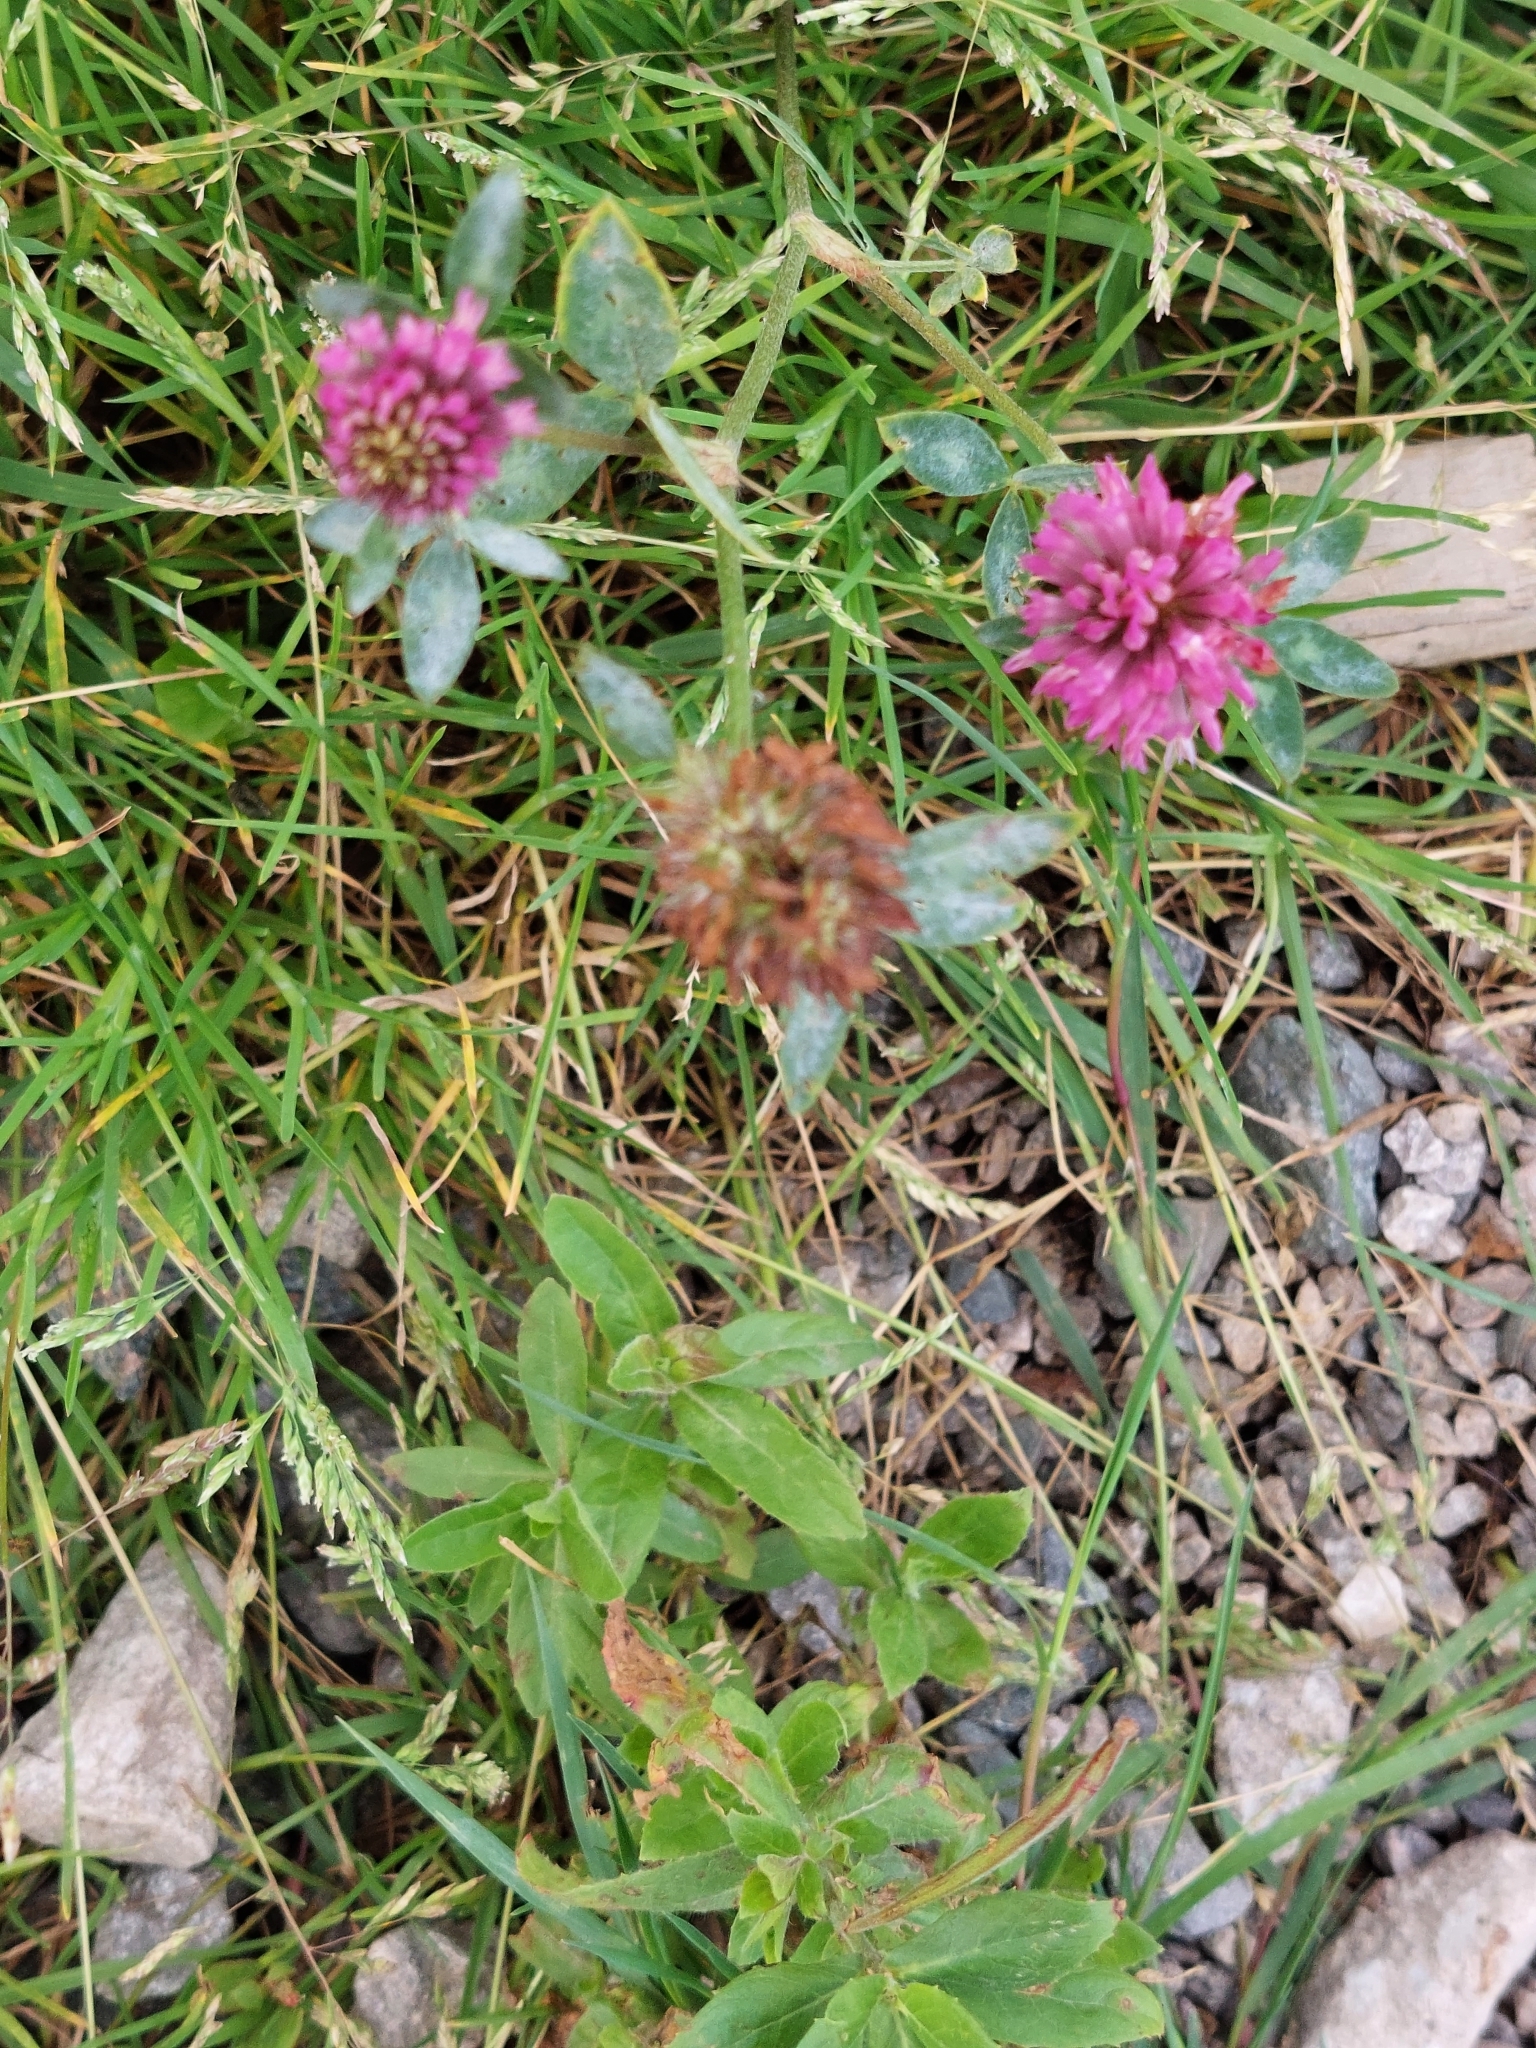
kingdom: Plantae
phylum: Tracheophyta
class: Magnoliopsida
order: Fabales
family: Fabaceae
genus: Trifolium
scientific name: Trifolium pratense
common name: Red clover
